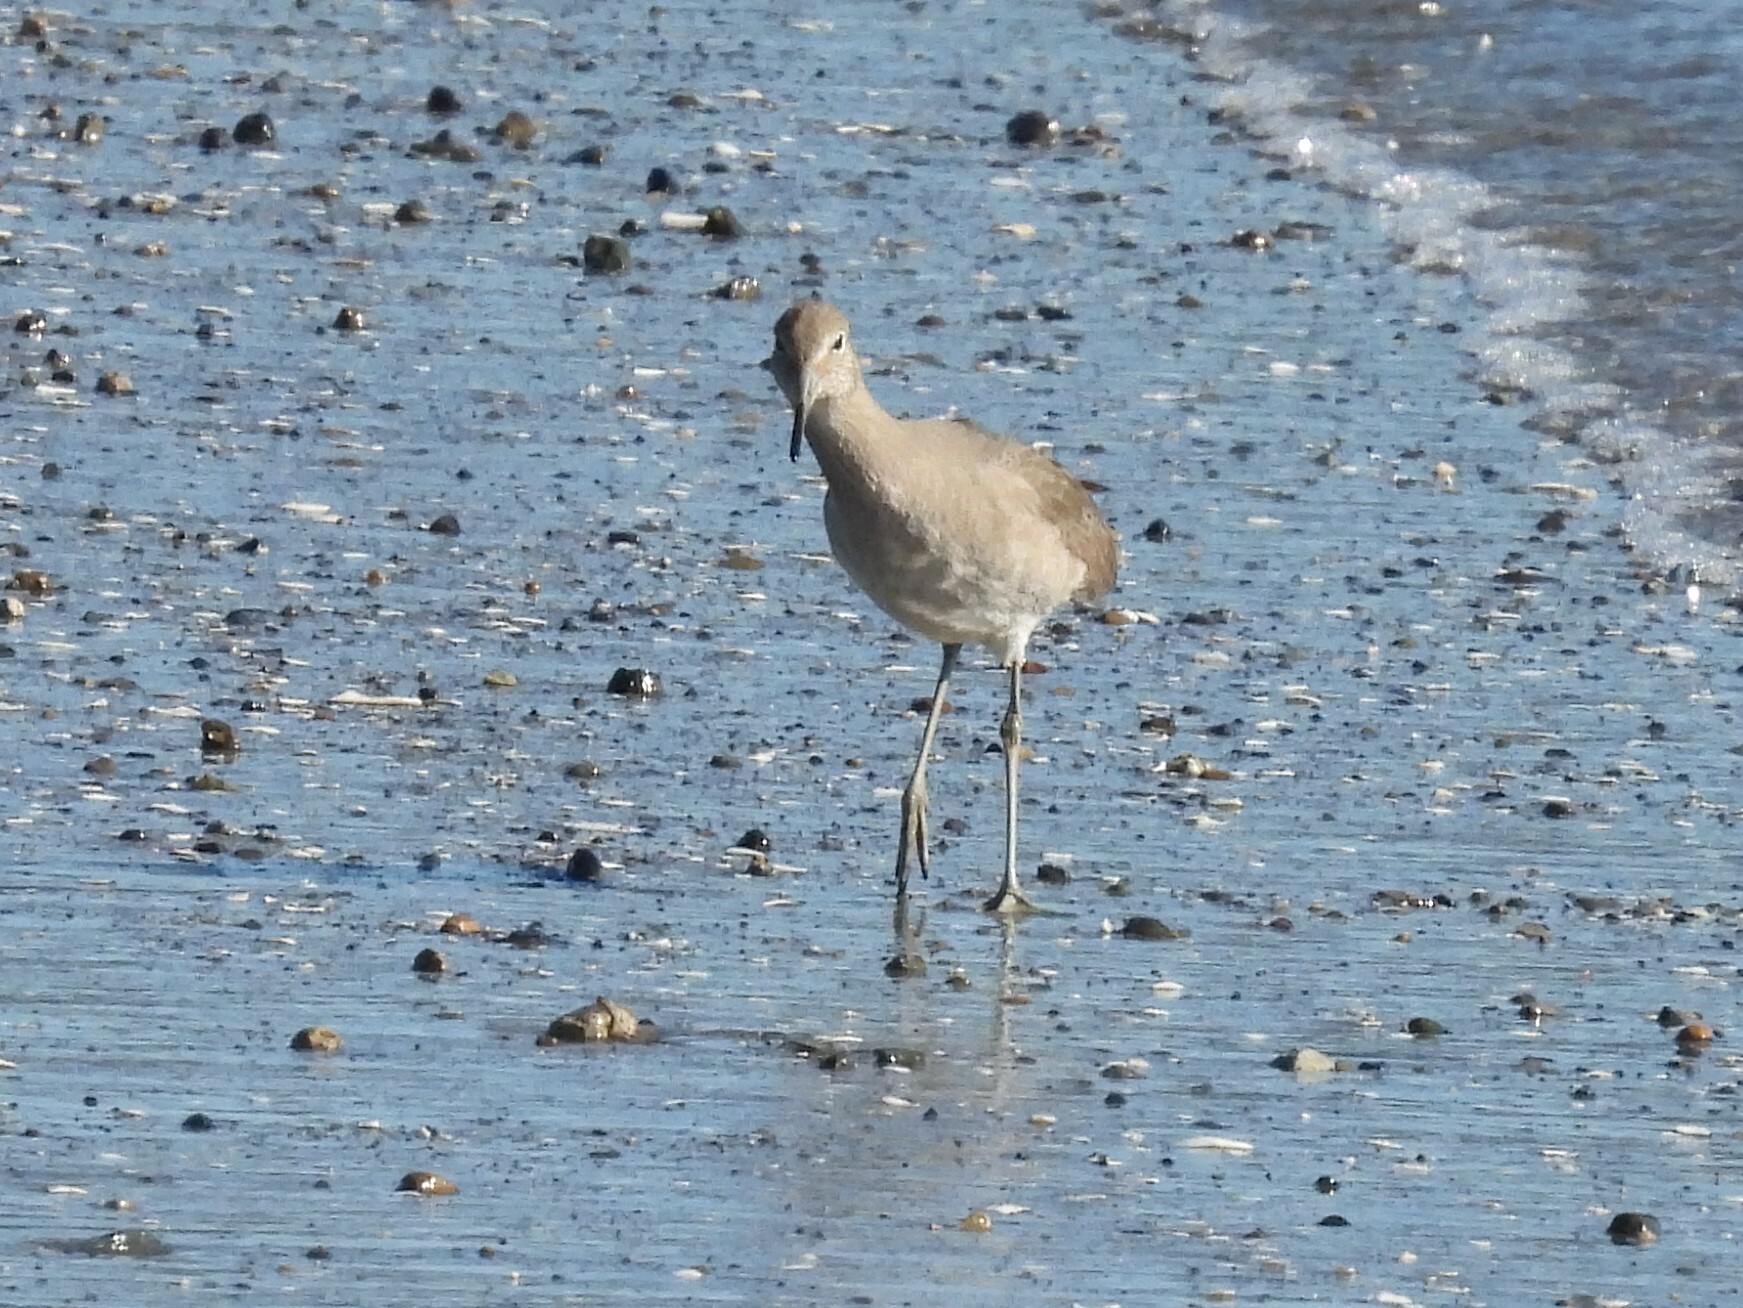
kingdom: Animalia
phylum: Chordata
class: Aves
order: Charadriiformes
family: Scolopacidae
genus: Tringa
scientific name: Tringa semipalmata
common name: Willet
